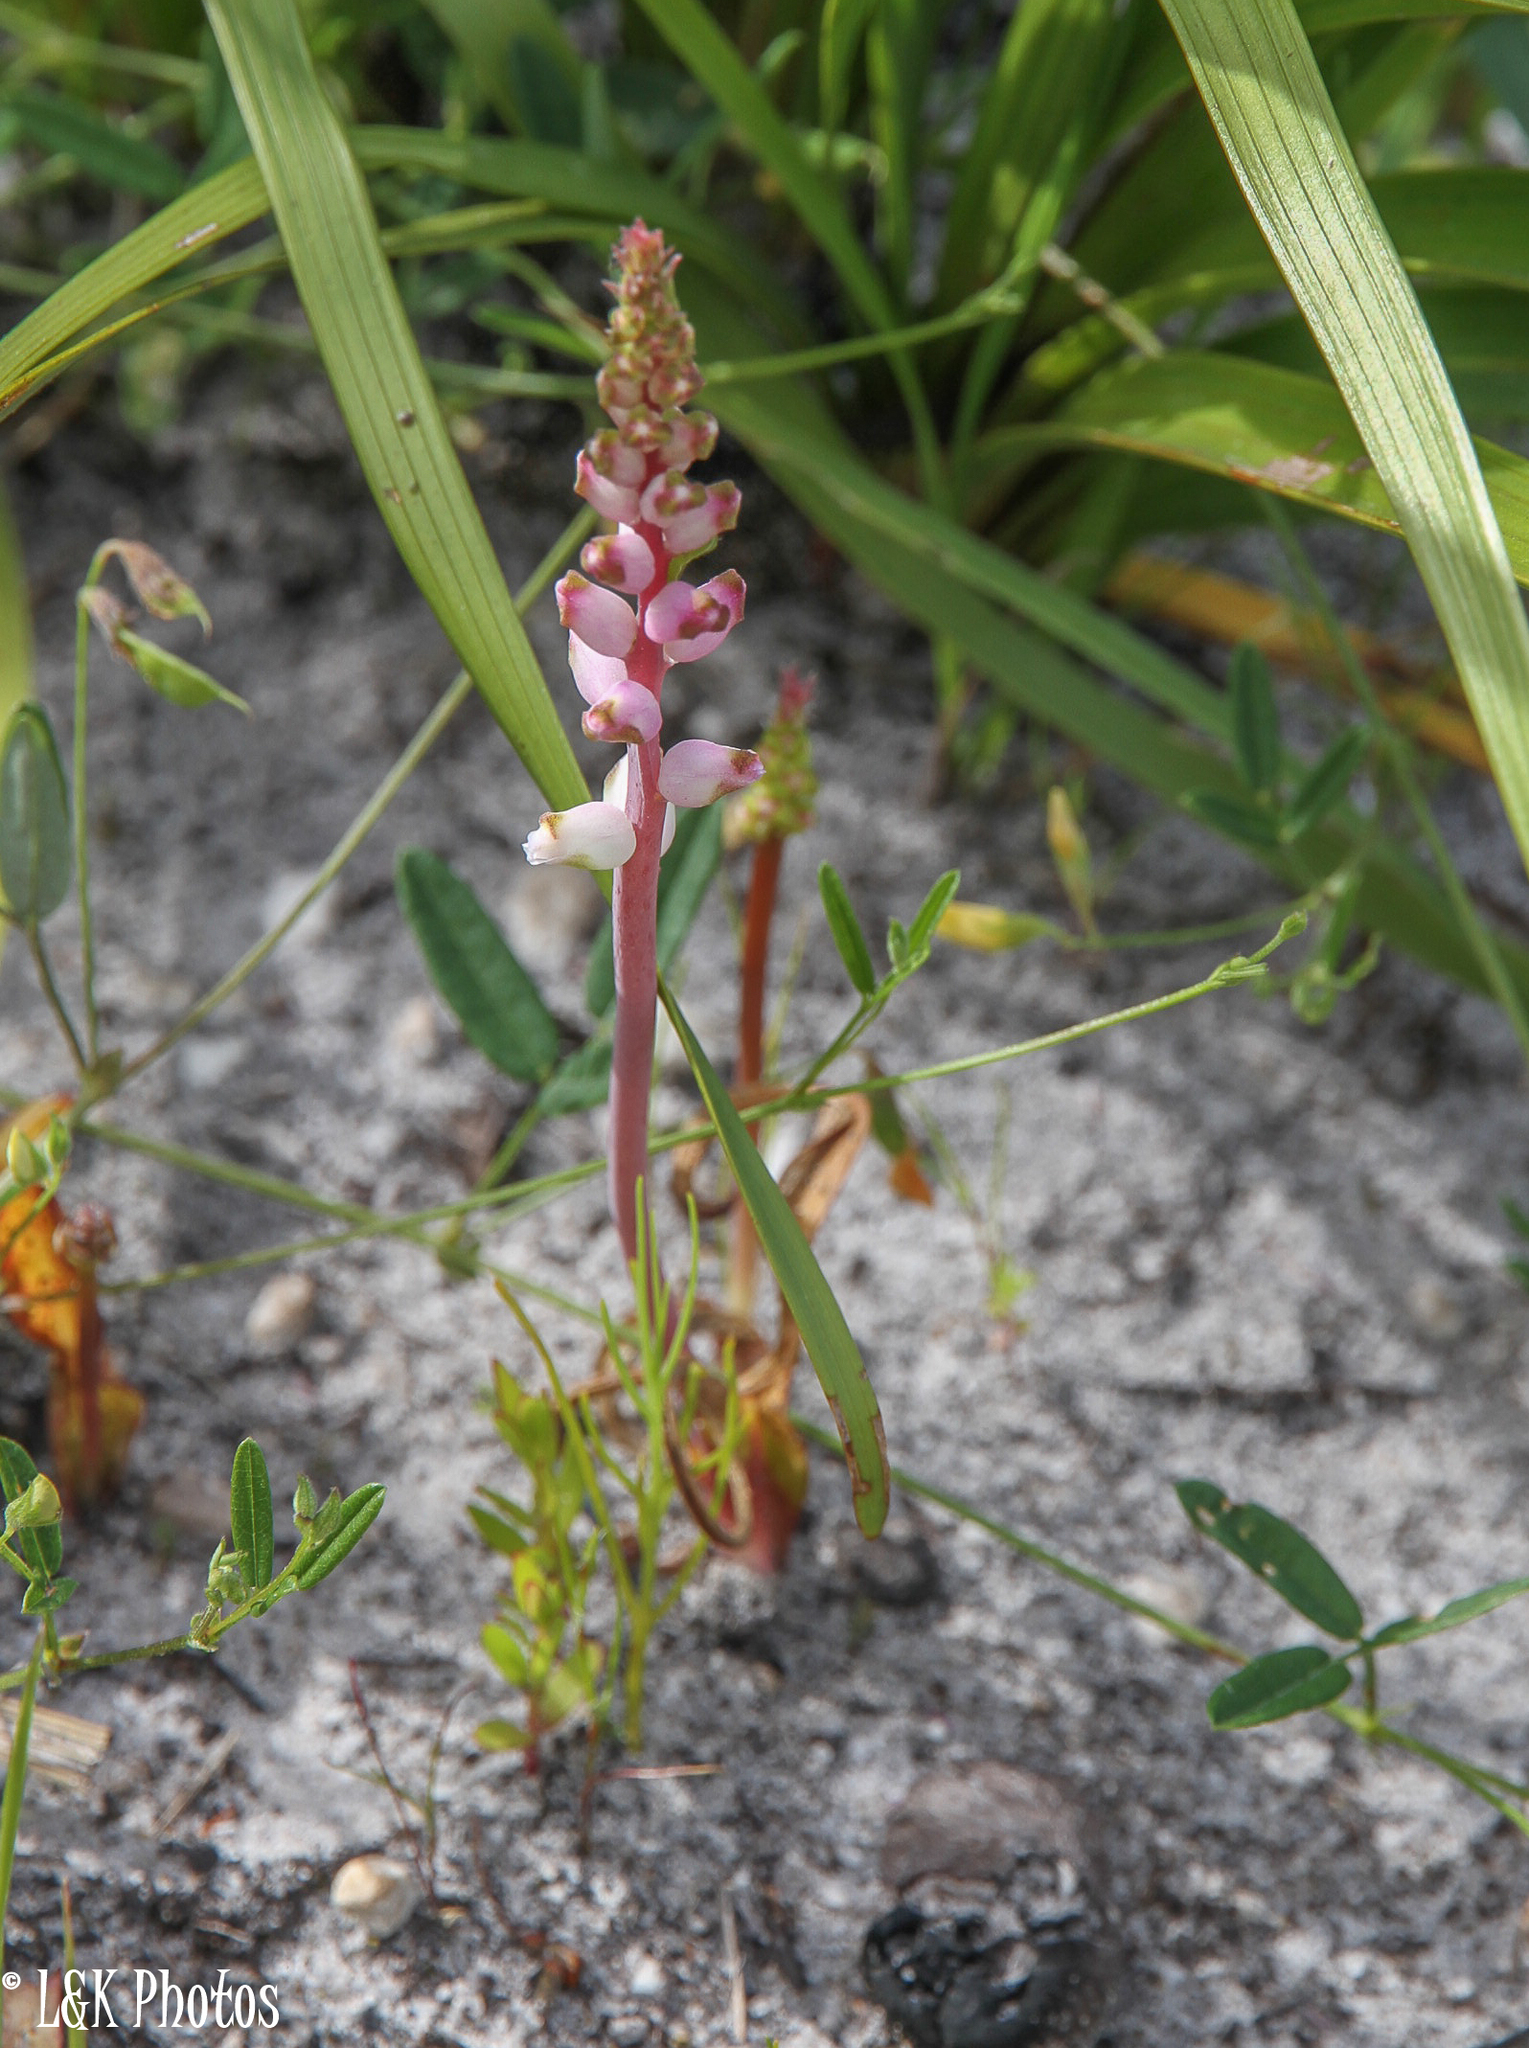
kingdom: Plantae
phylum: Tracheophyta
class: Liliopsida
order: Asparagales
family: Asparagaceae
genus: Lachenalia
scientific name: Lachenalia peersii
